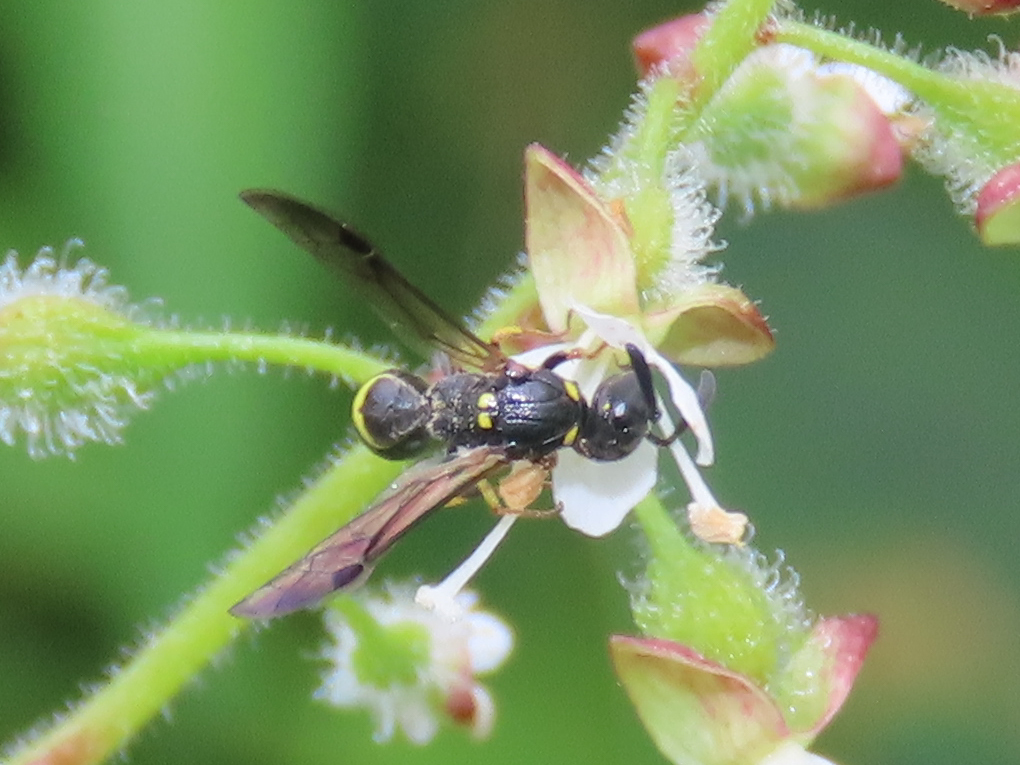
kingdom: Animalia
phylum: Arthropoda
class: Insecta
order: Hymenoptera
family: Eumenidae
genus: Symmorphus
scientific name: Symmorphus
